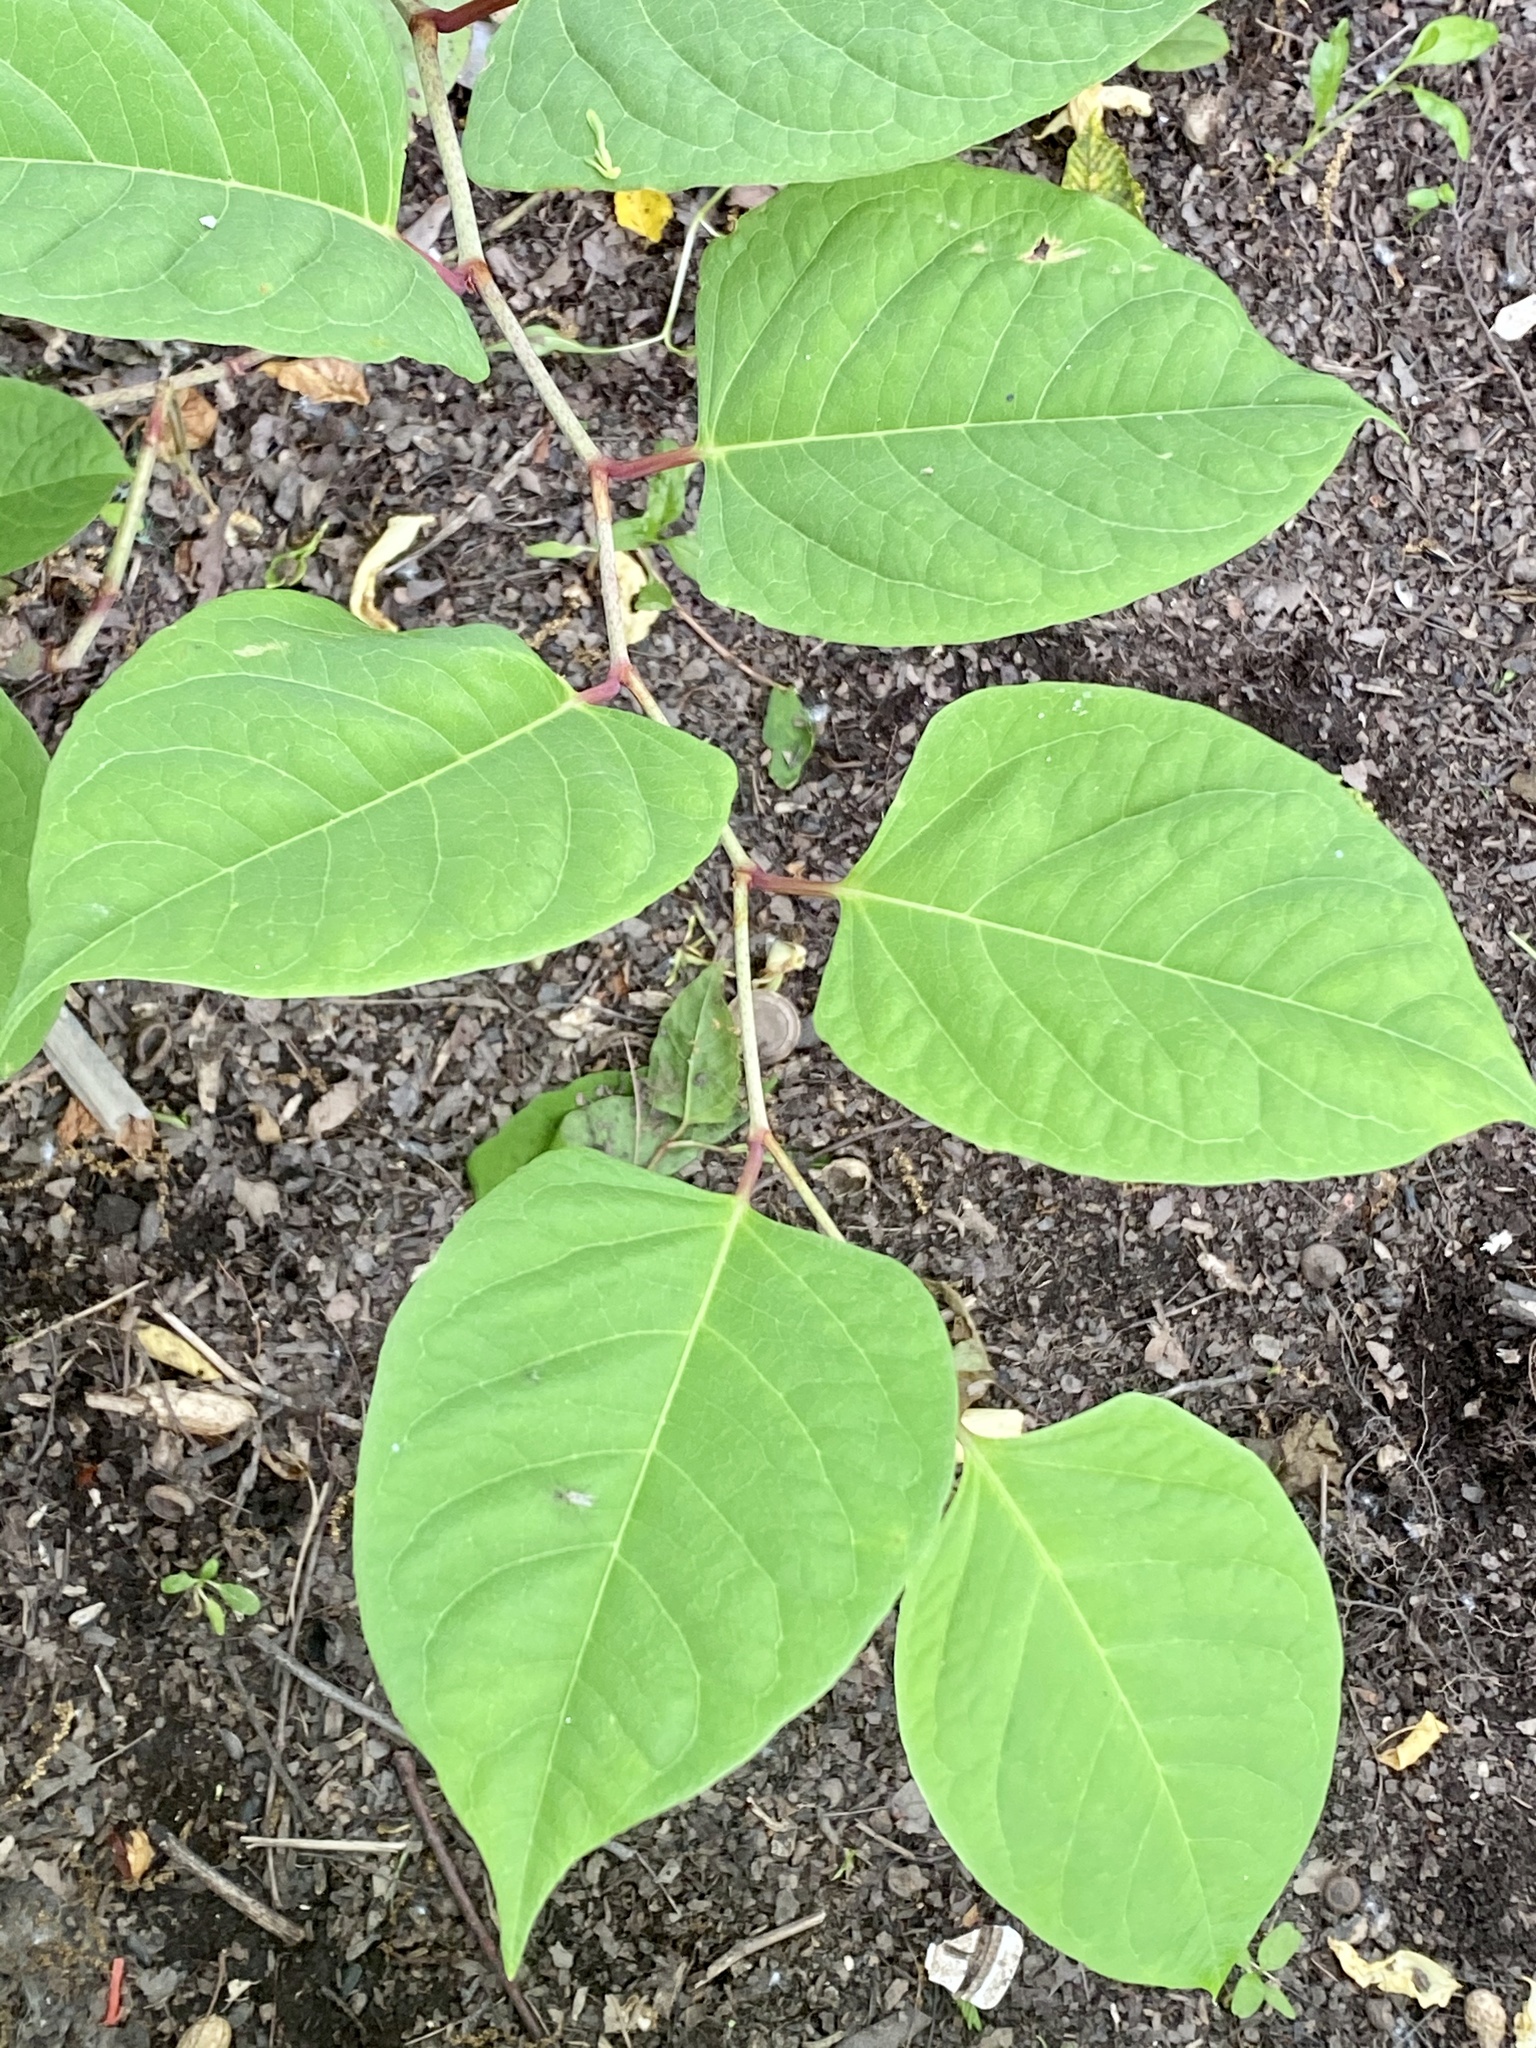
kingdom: Plantae
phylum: Tracheophyta
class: Magnoliopsida
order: Caryophyllales
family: Polygonaceae
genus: Reynoutria
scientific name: Reynoutria japonica
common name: Japanese knotweed
